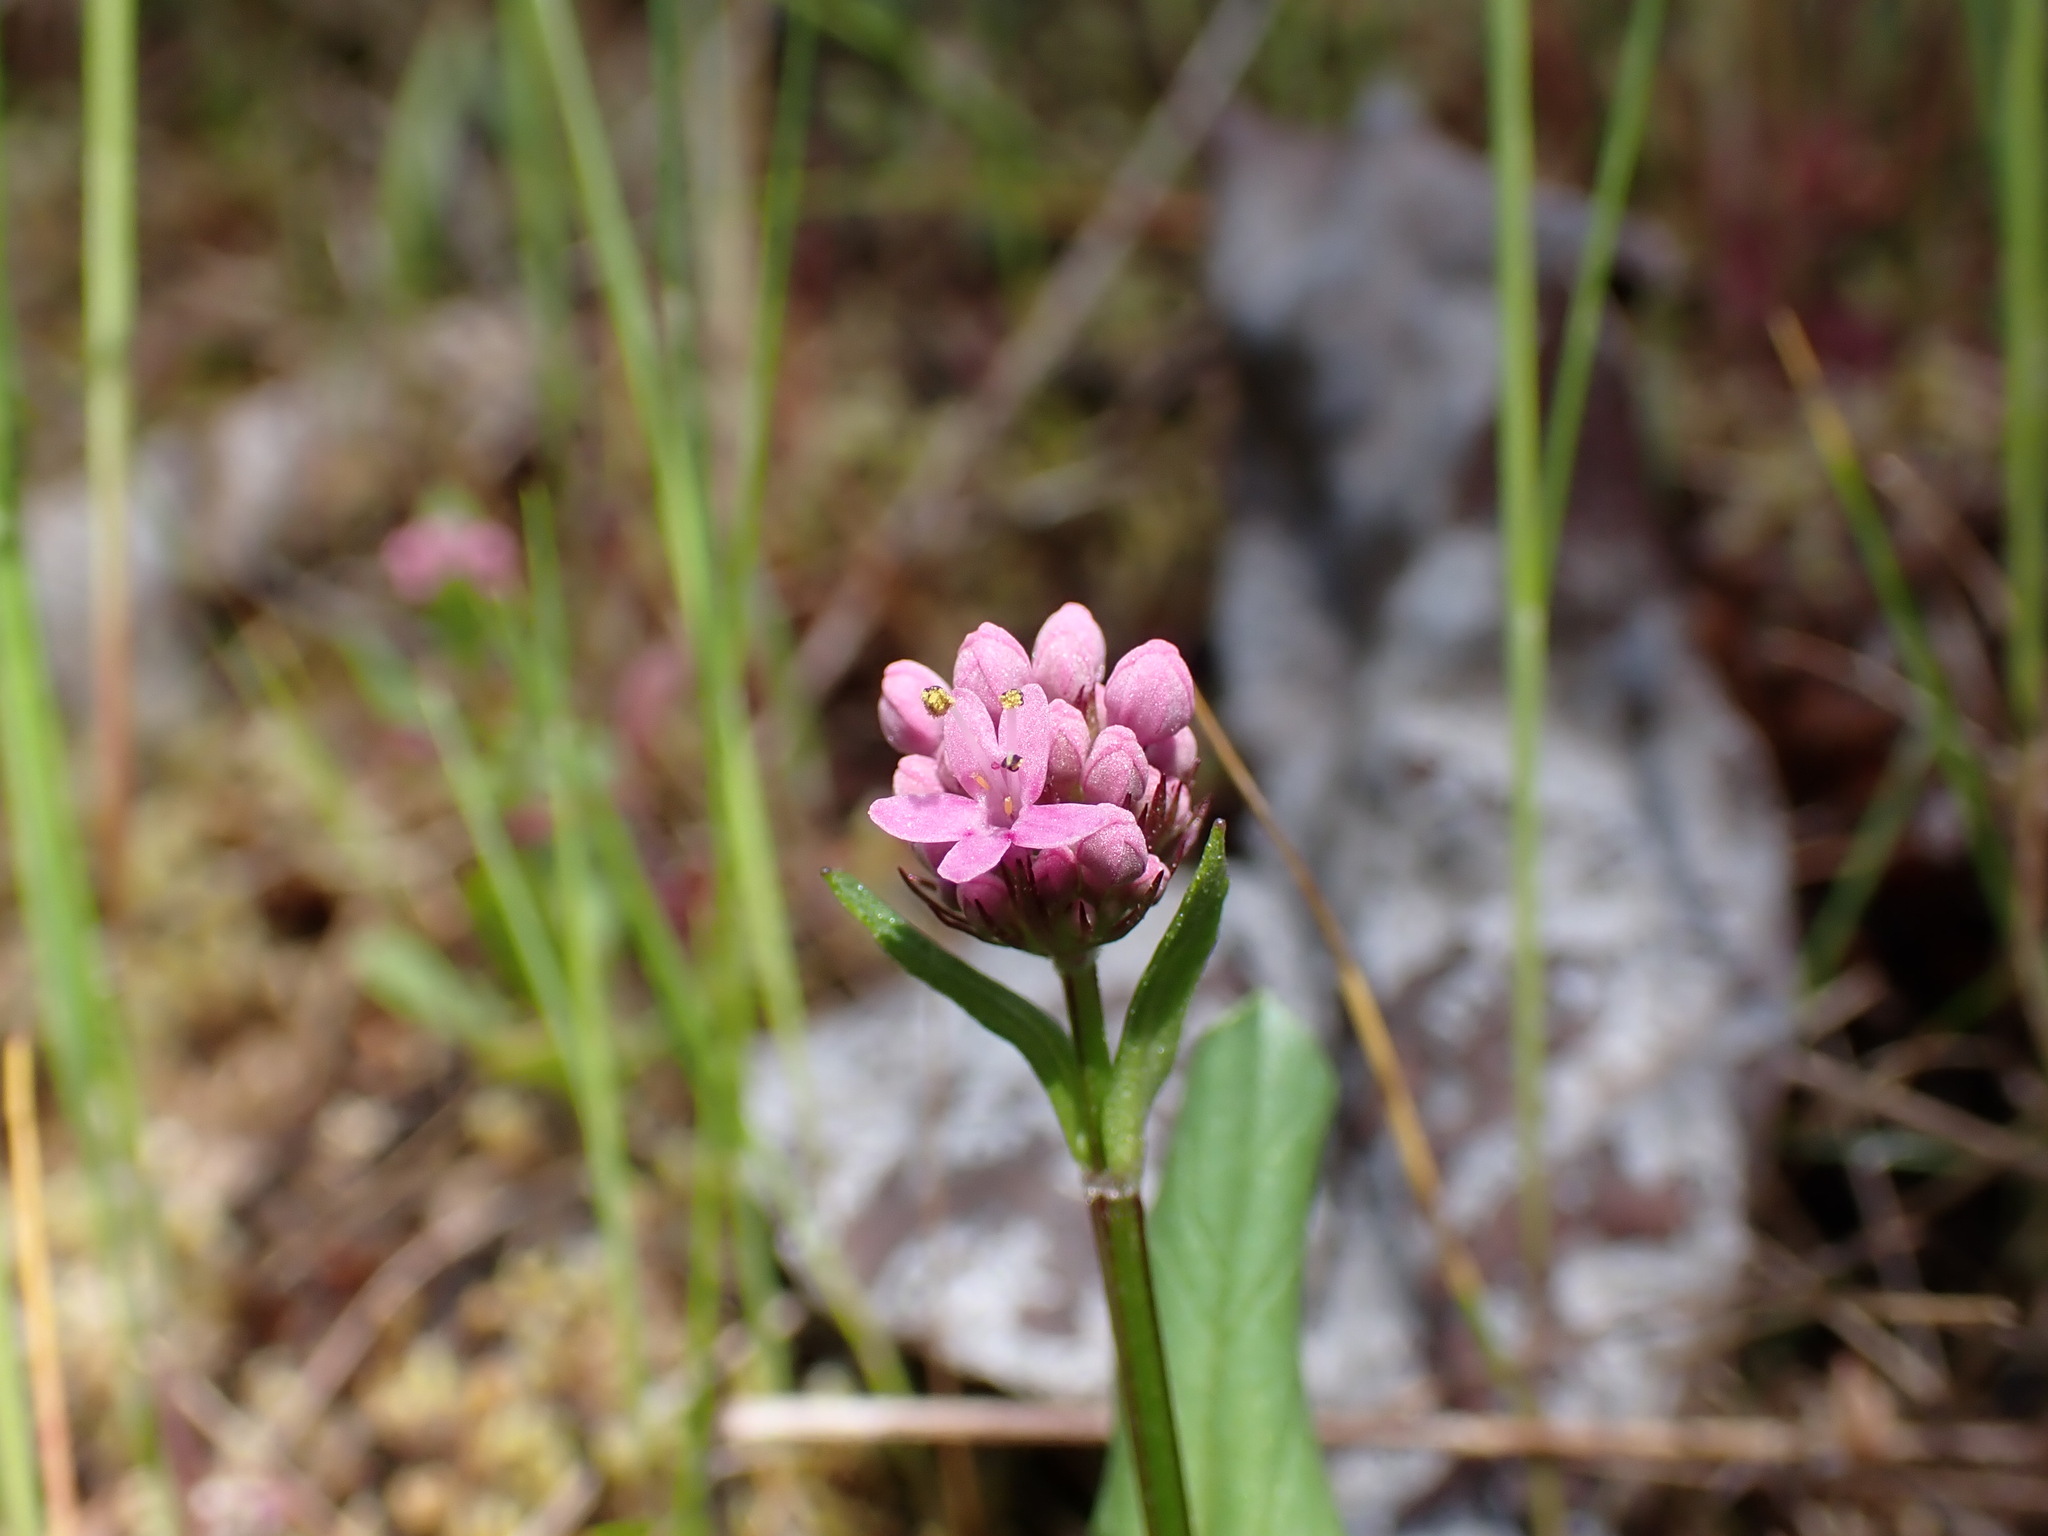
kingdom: Plantae
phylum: Tracheophyta
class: Magnoliopsida
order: Dipsacales
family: Caprifoliaceae
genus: Plectritis
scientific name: Plectritis congesta
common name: Pink plectritis
